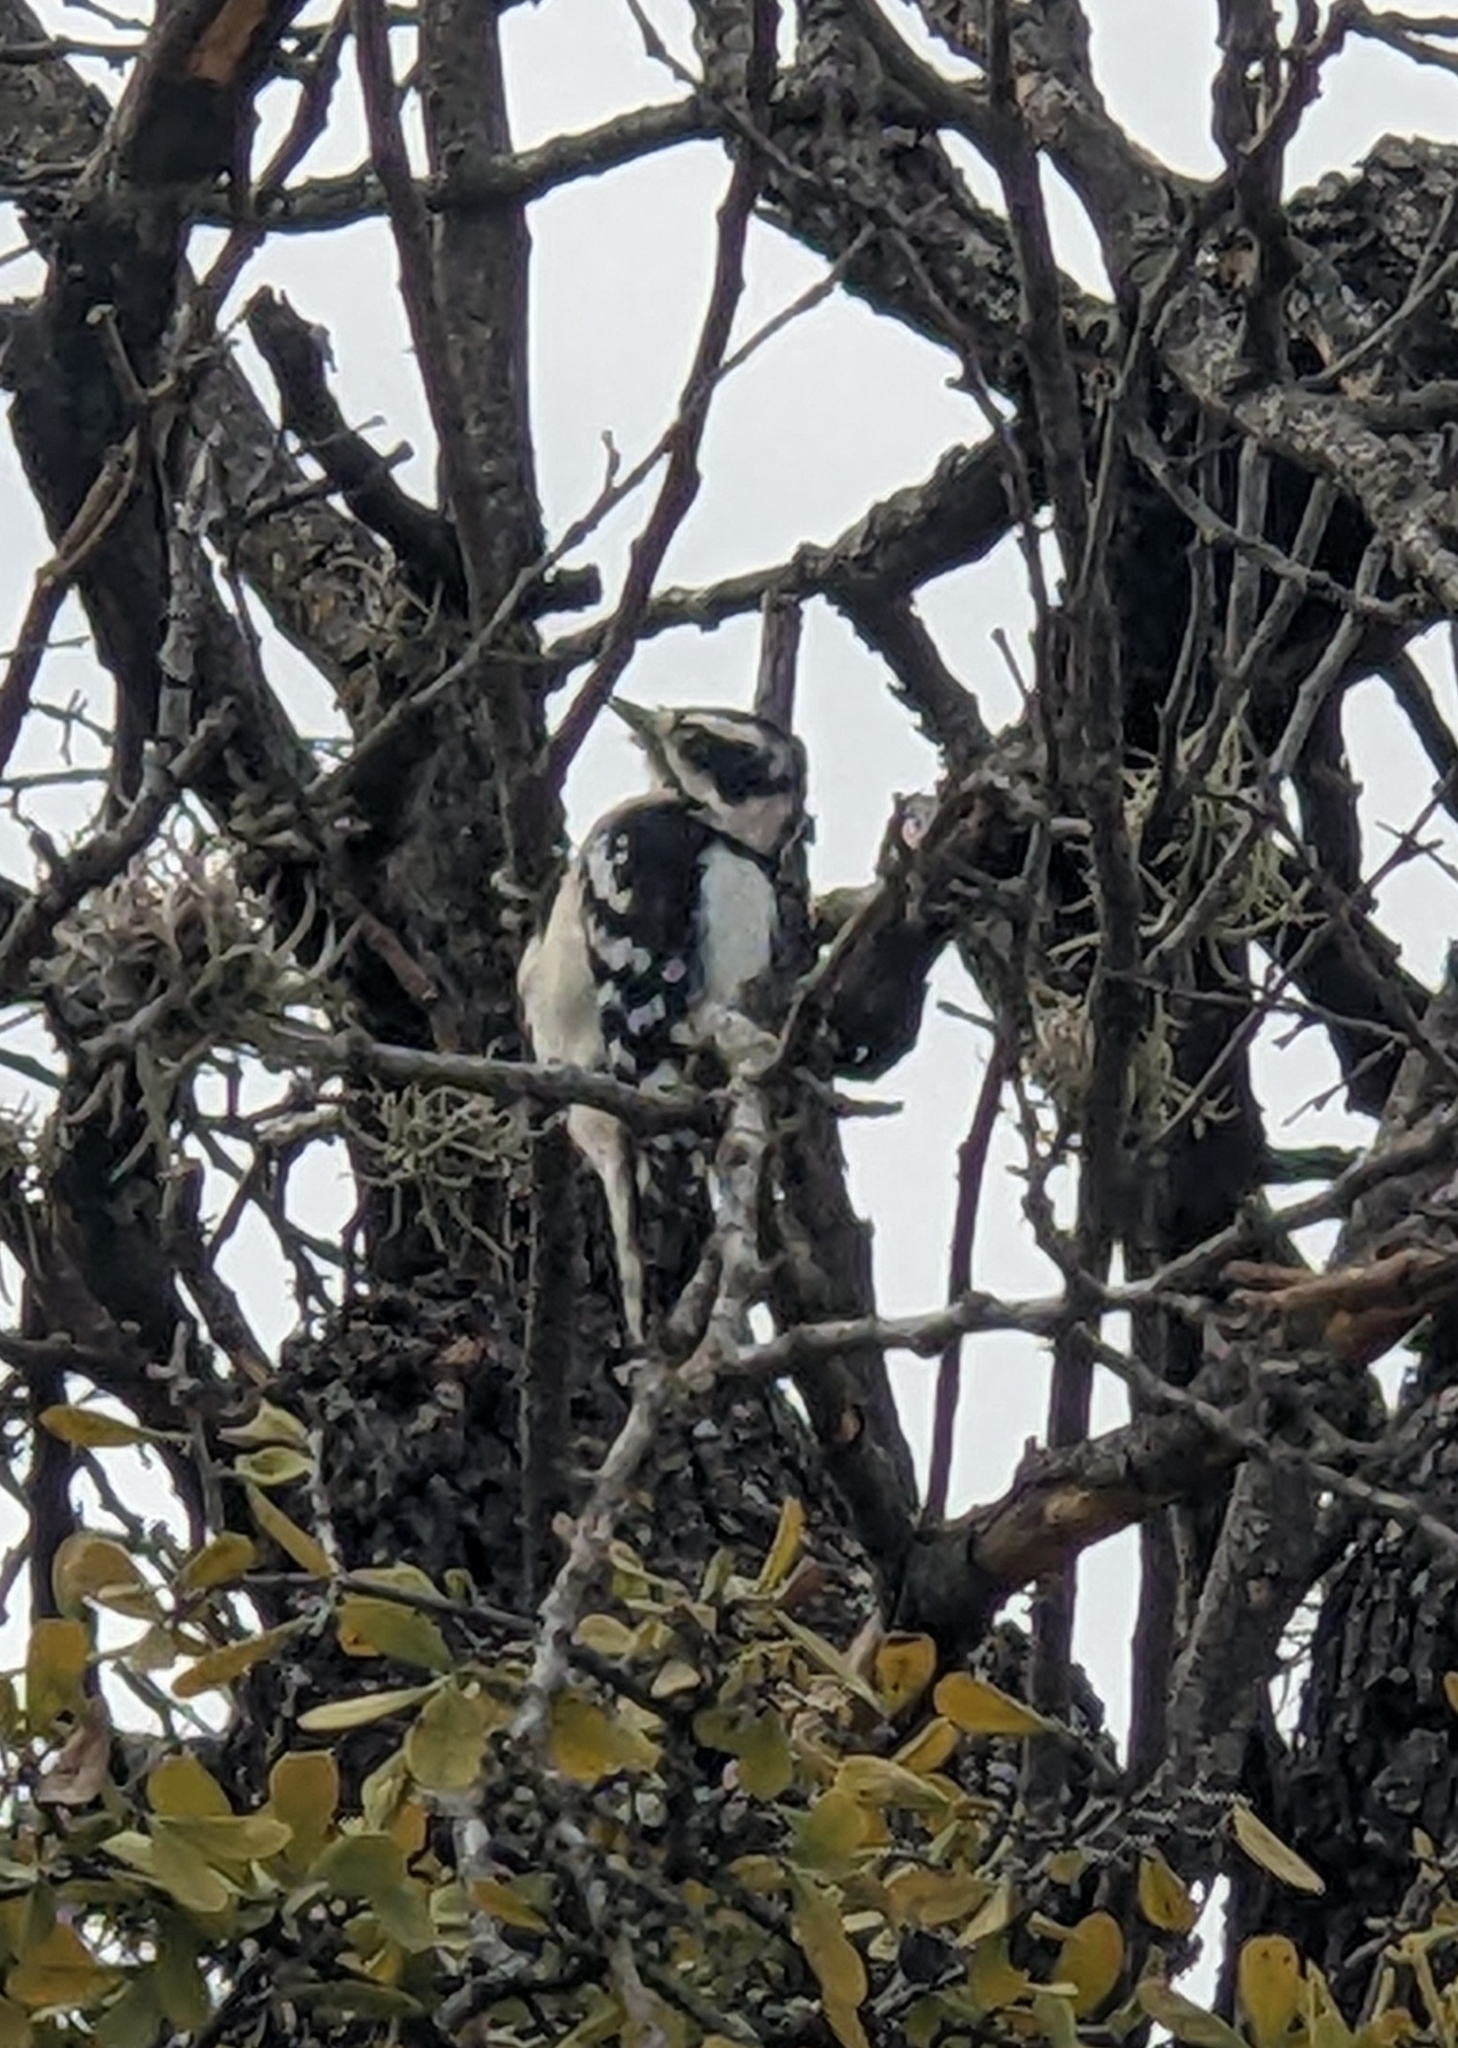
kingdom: Animalia
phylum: Chordata
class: Aves
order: Piciformes
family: Picidae
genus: Dryobates
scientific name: Dryobates pubescens
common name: Downy woodpecker
